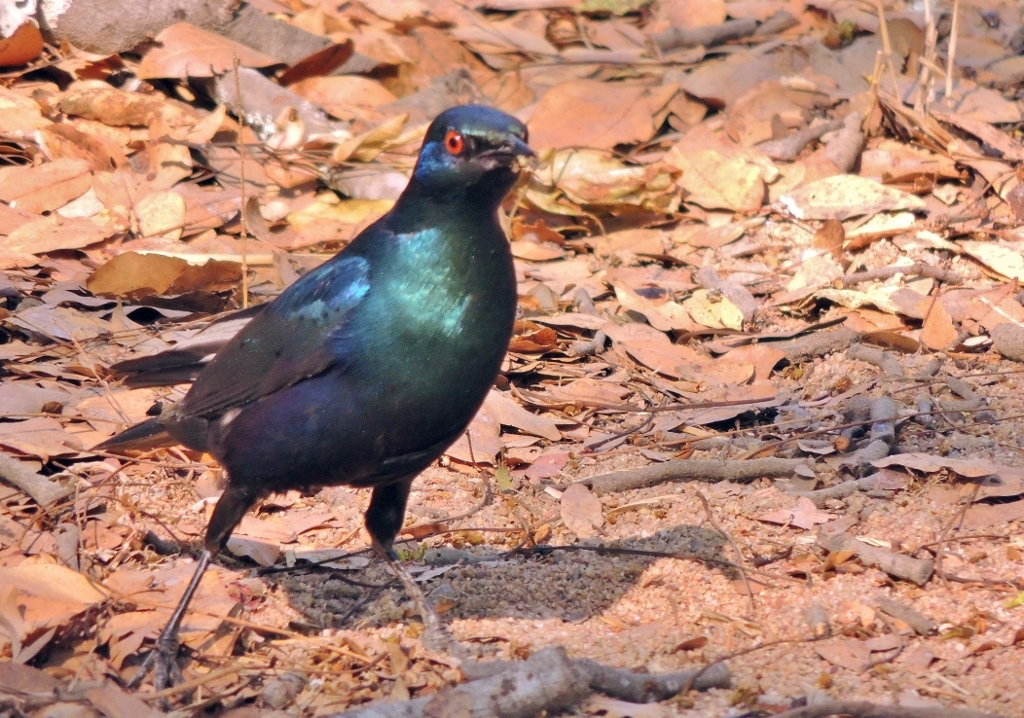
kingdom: Animalia
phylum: Chordata
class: Aves
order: Passeriformes
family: Sturnidae
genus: Lamprotornis
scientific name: Lamprotornis chloropterus
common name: Lesser blue-eared starling
